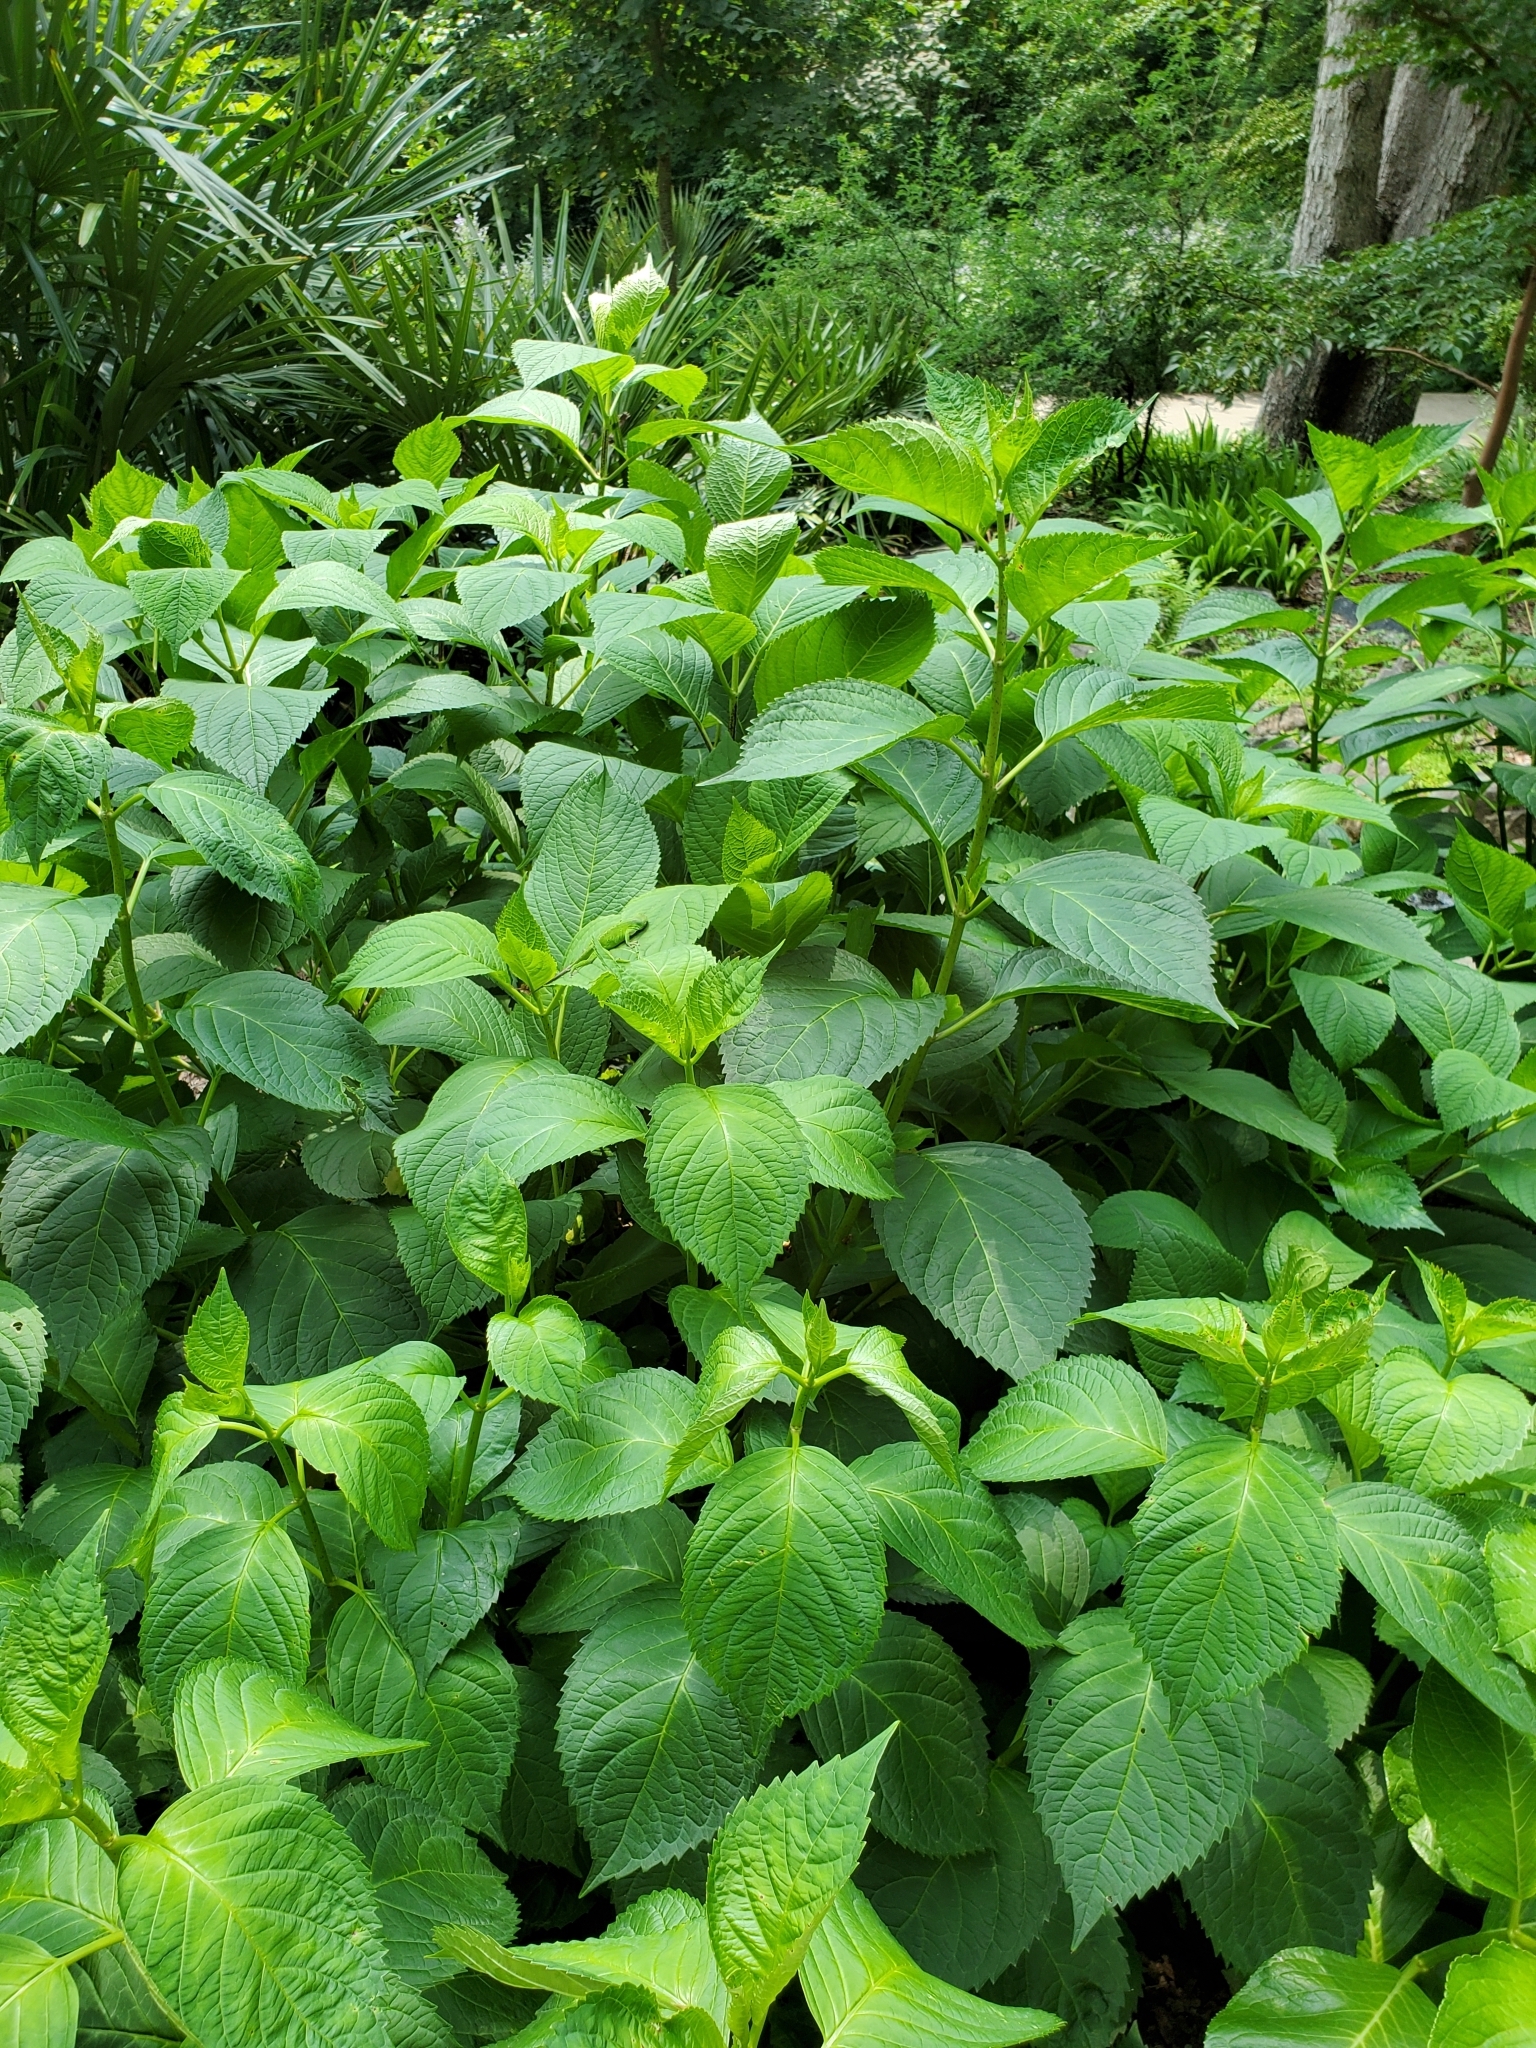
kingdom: Animalia
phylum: Chordata
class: Squamata
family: Dactyloidae
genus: Anolis
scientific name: Anolis carolinensis
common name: Green anole
